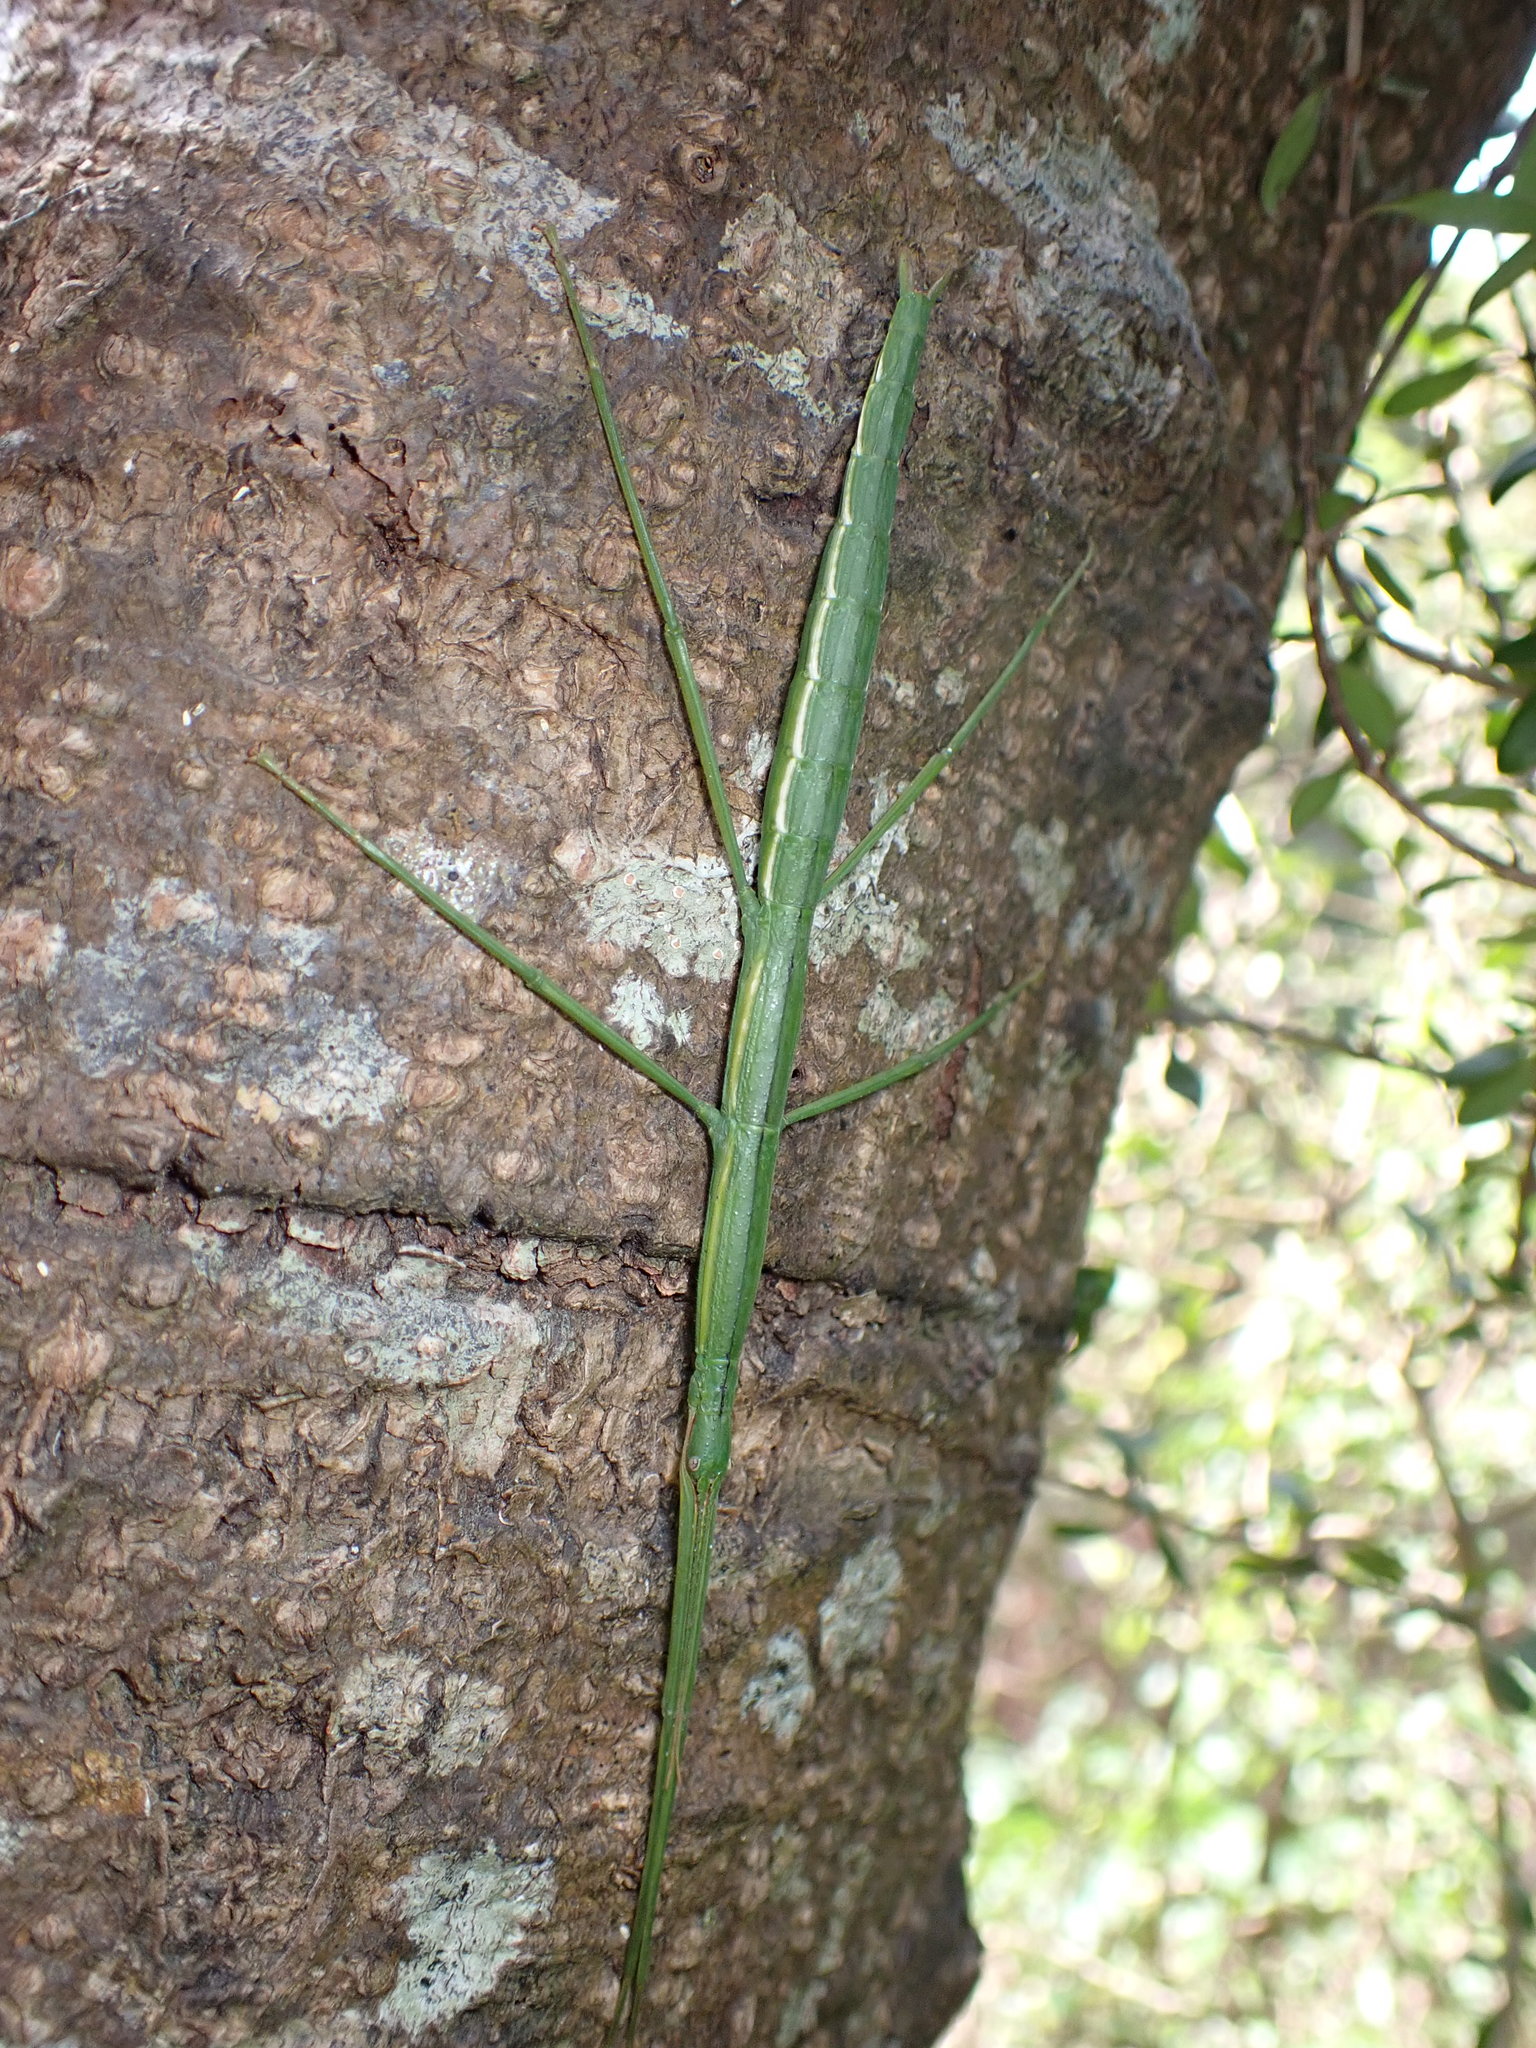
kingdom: Animalia
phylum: Arthropoda
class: Insecta
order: Phasmida
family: Phasmatidae
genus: Clitarchus
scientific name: Clitarchus hookeri
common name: Smooth stick insect
